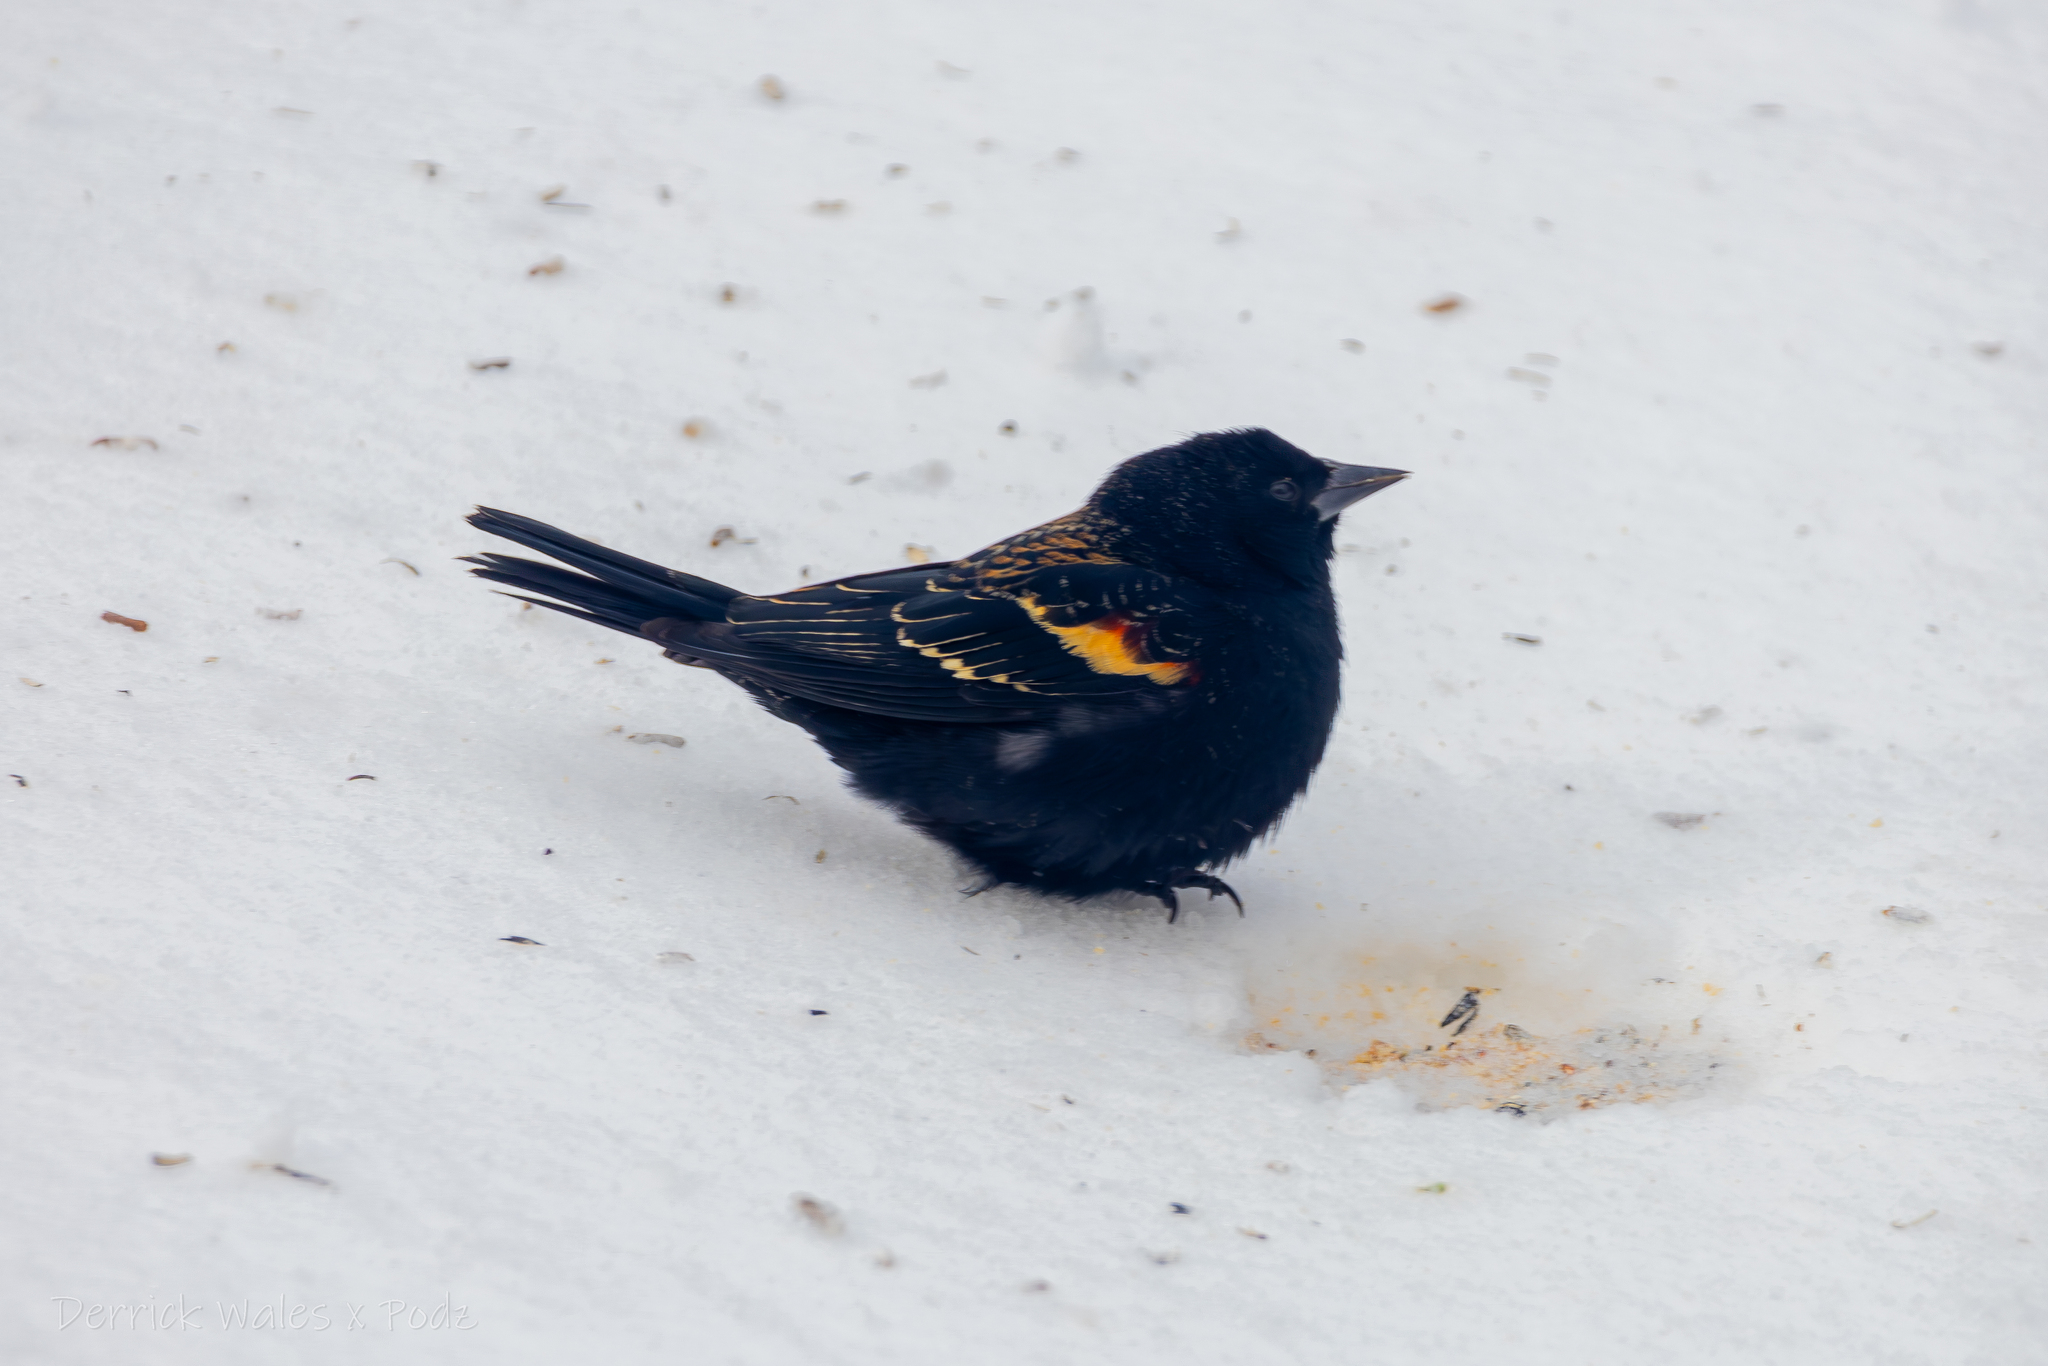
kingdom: Animalia
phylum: Chordata
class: Aves
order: Passeriformes
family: Icteridae
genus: Agelaius
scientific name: Agelaius phoeniceus
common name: Red-winged blackbird
